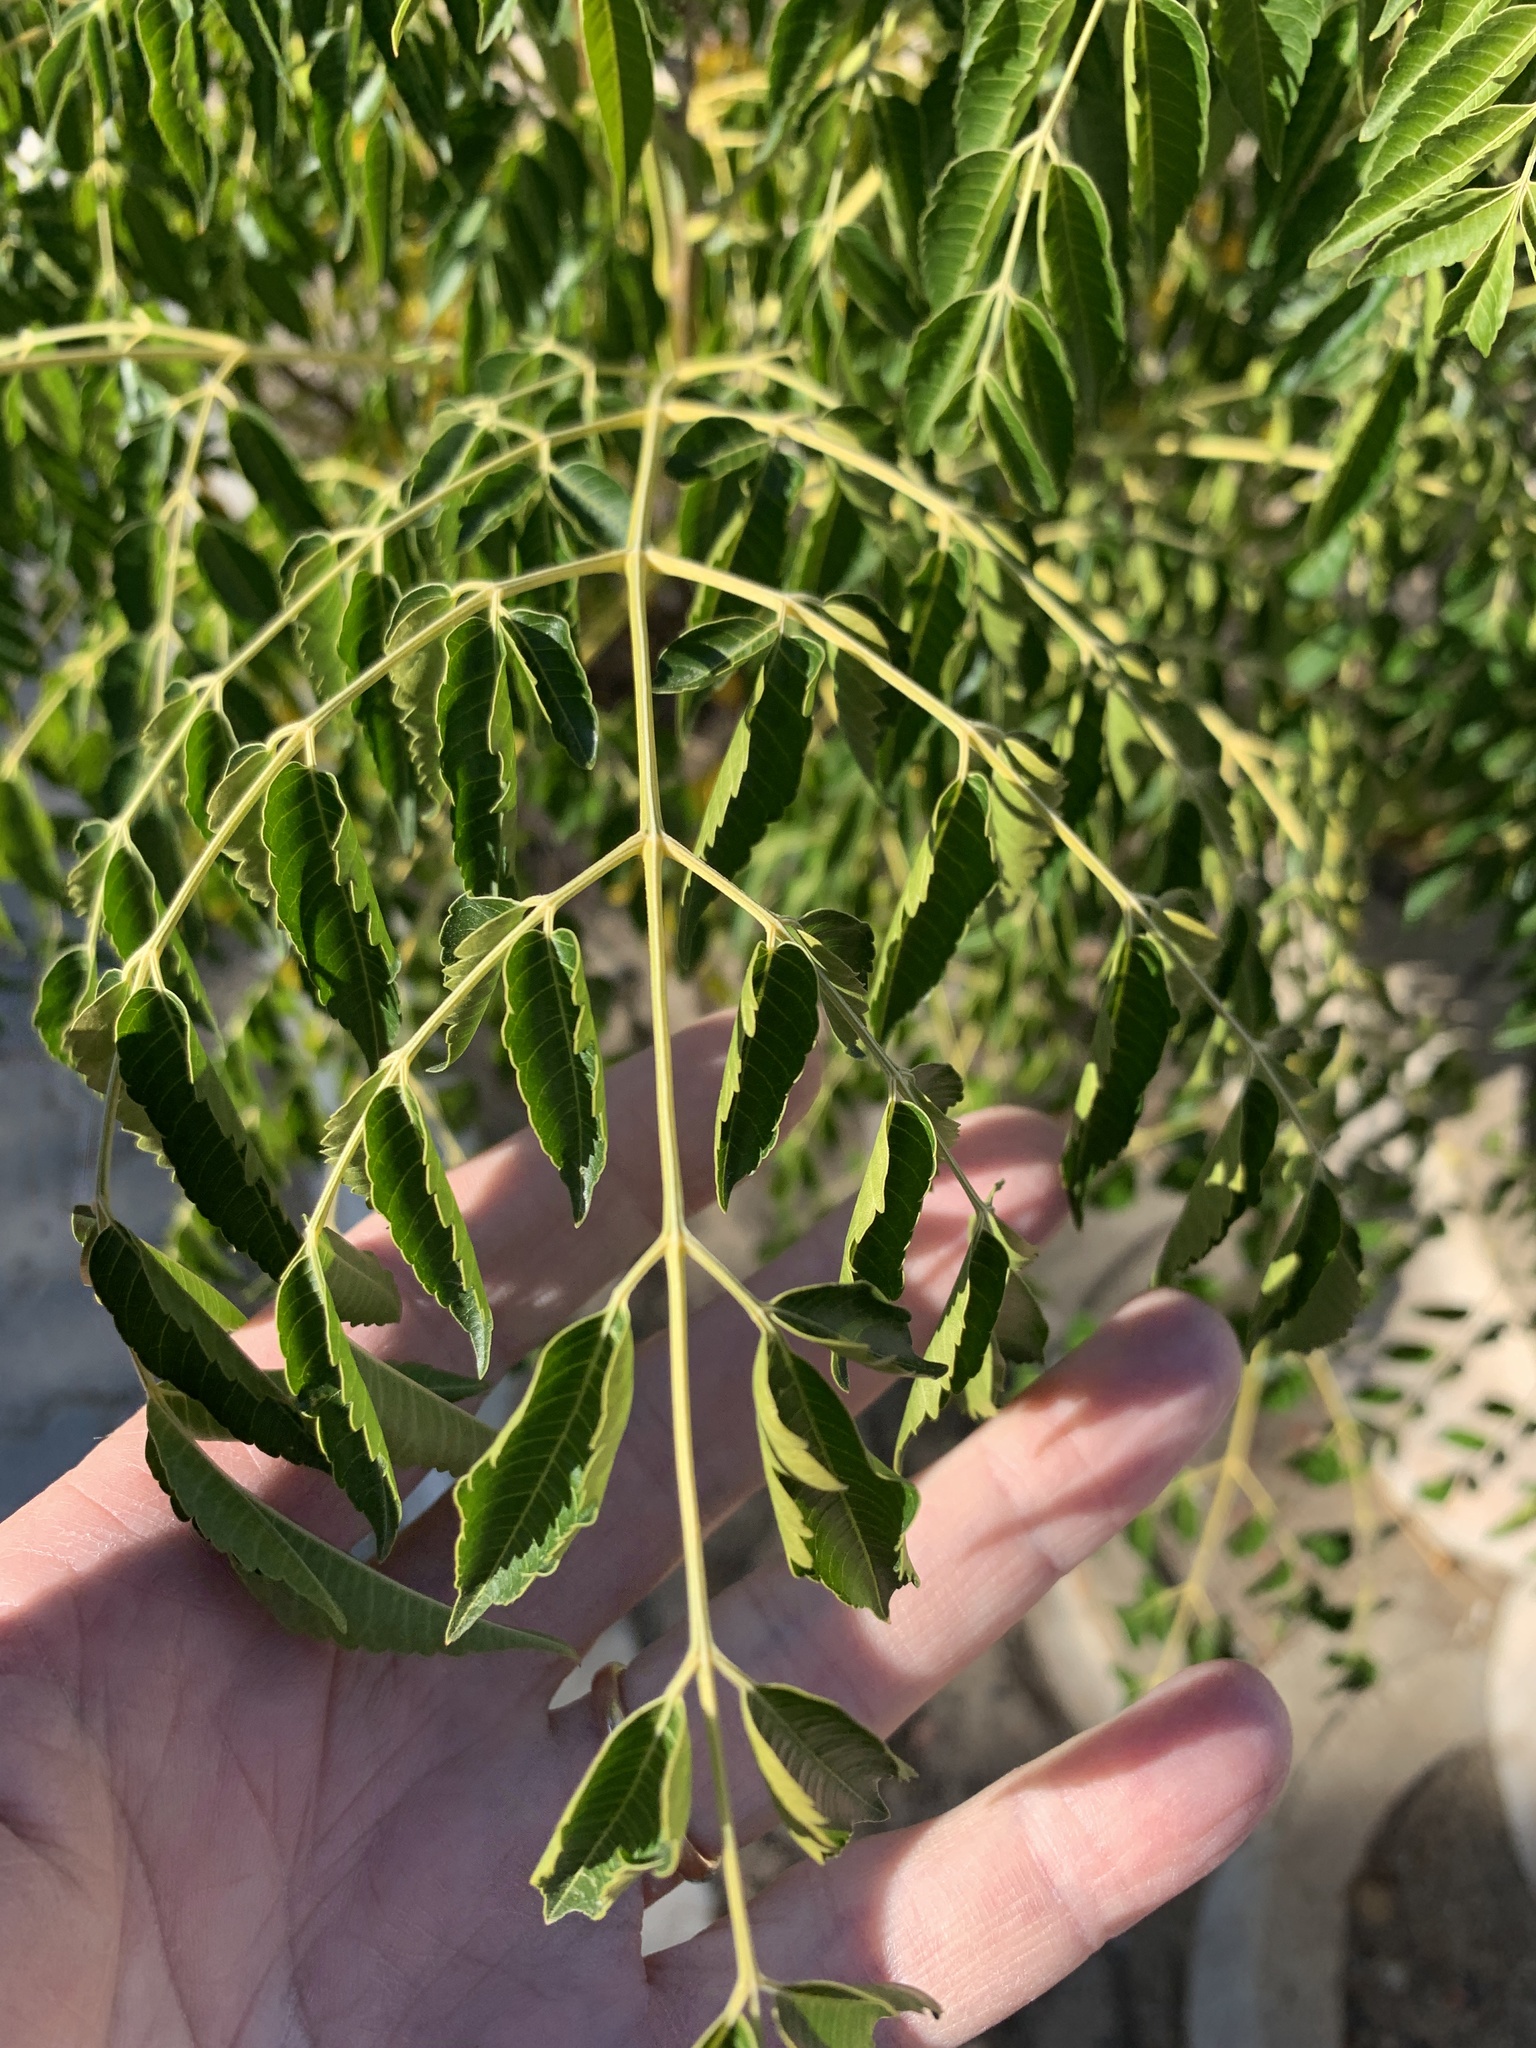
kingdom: Plantae
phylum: Tracheophyta
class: Magnoliopsida
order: Sapindales
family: Meliaceae
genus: Melia
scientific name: Melia azedarach
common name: Chinaberrytree
